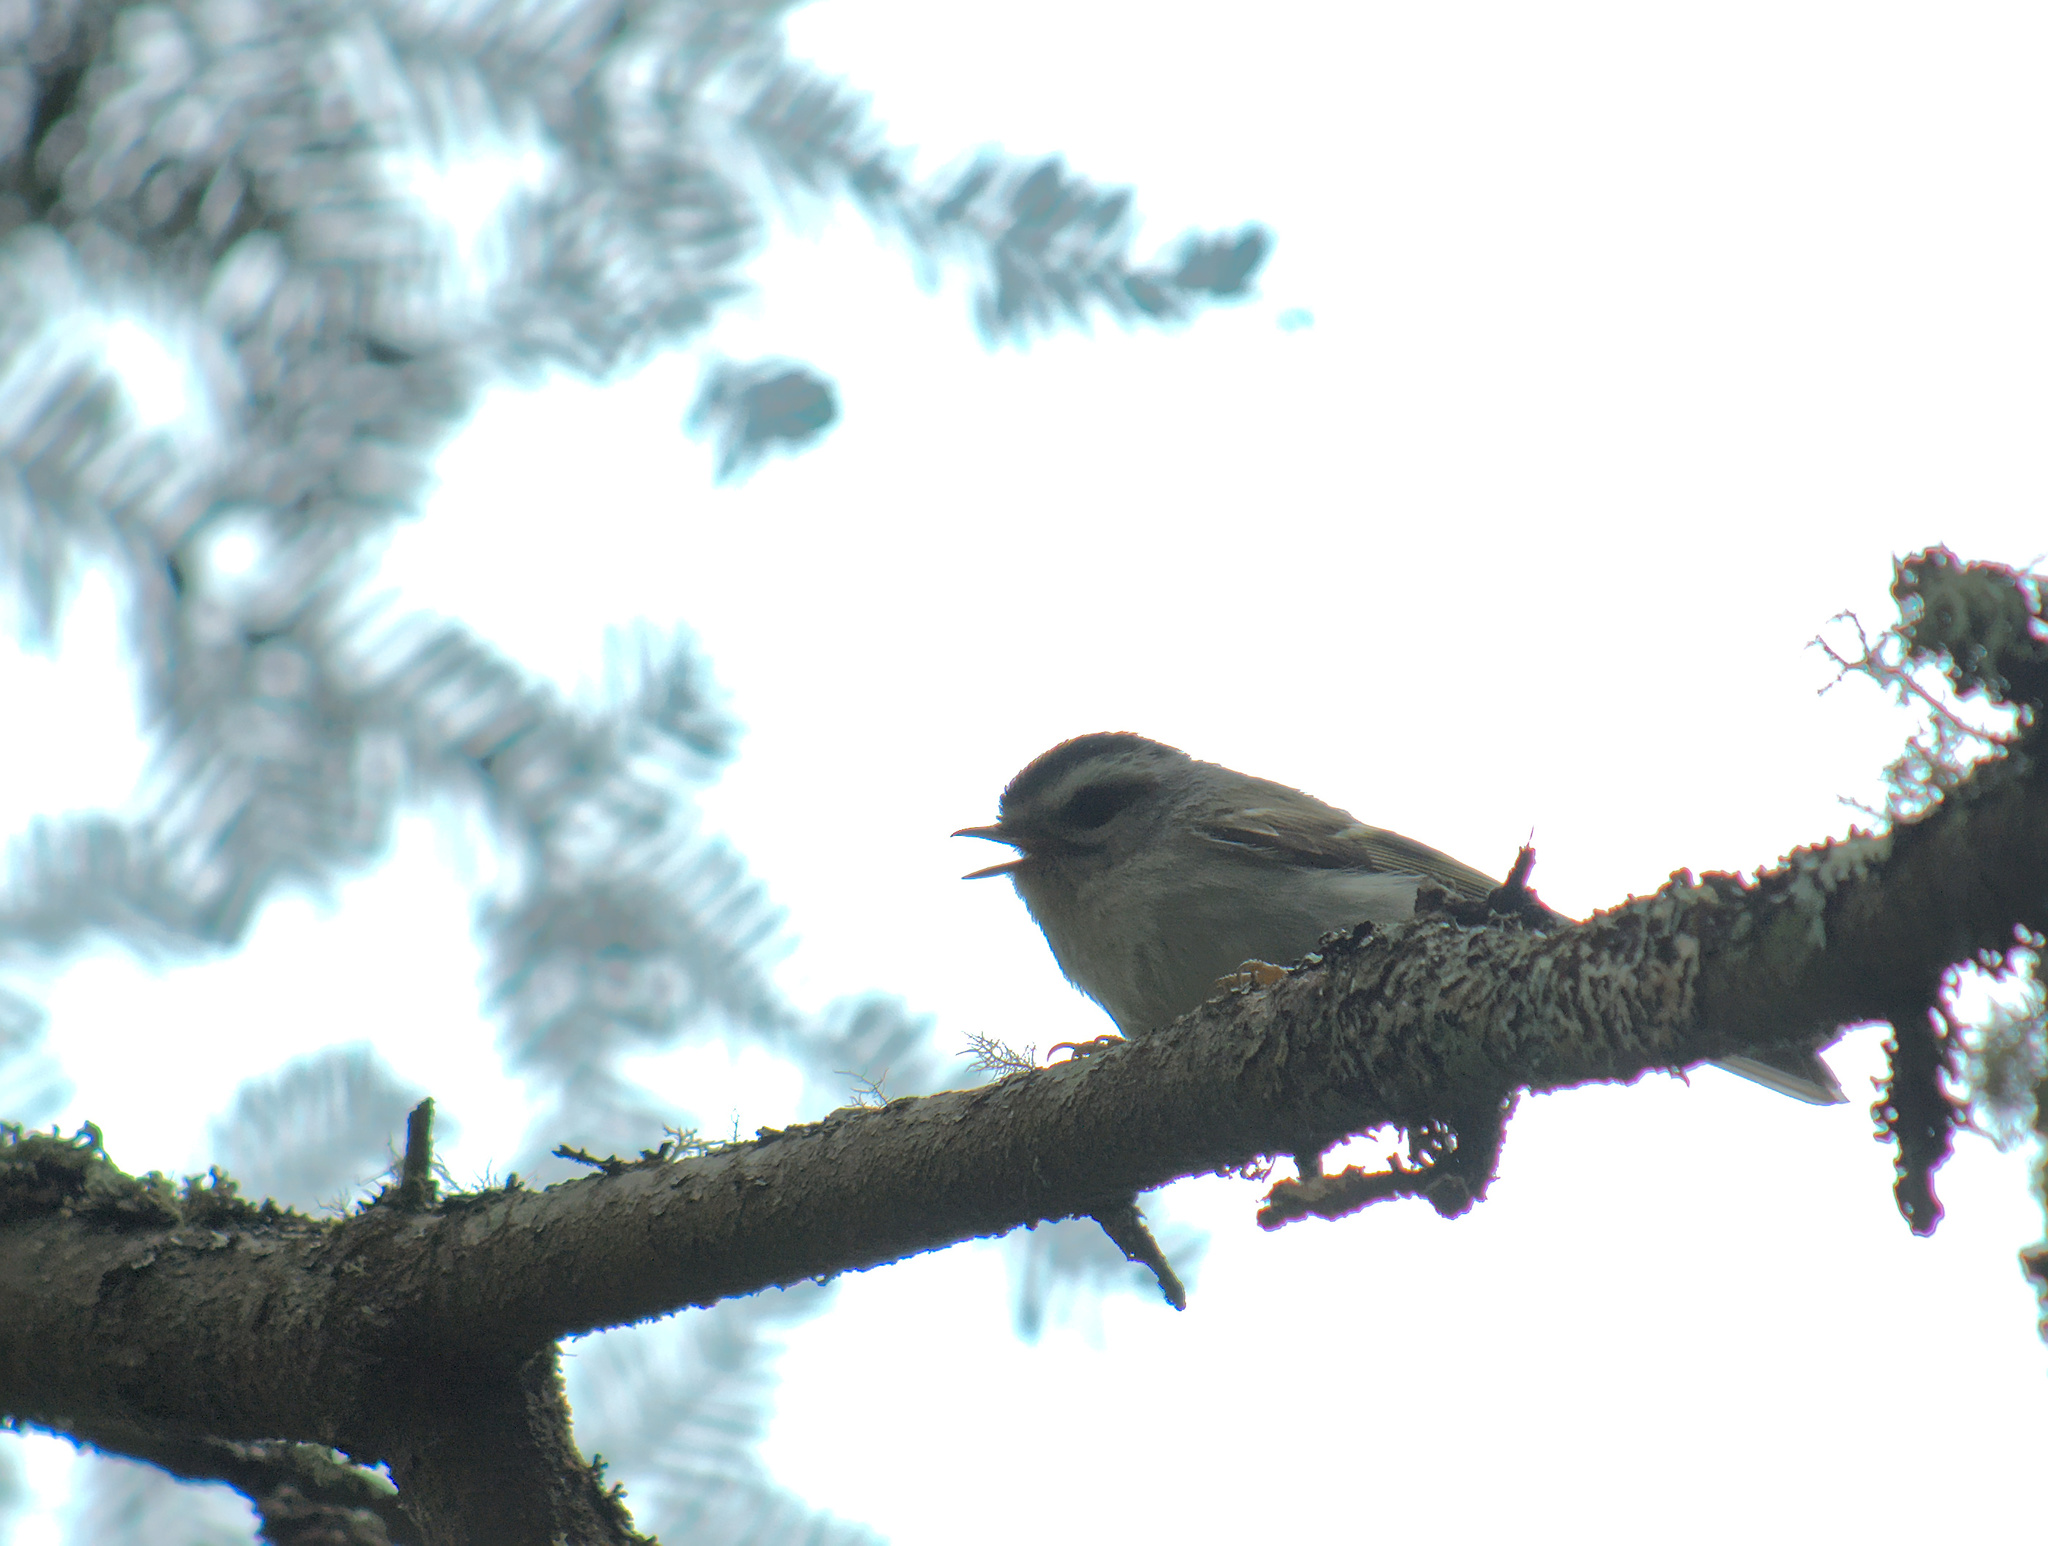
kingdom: Animalia
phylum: Chordata
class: Aves
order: Passeriformes
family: Regulidae
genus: Regulus
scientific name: Regulus satrapa
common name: Golden-crowned kinglet
